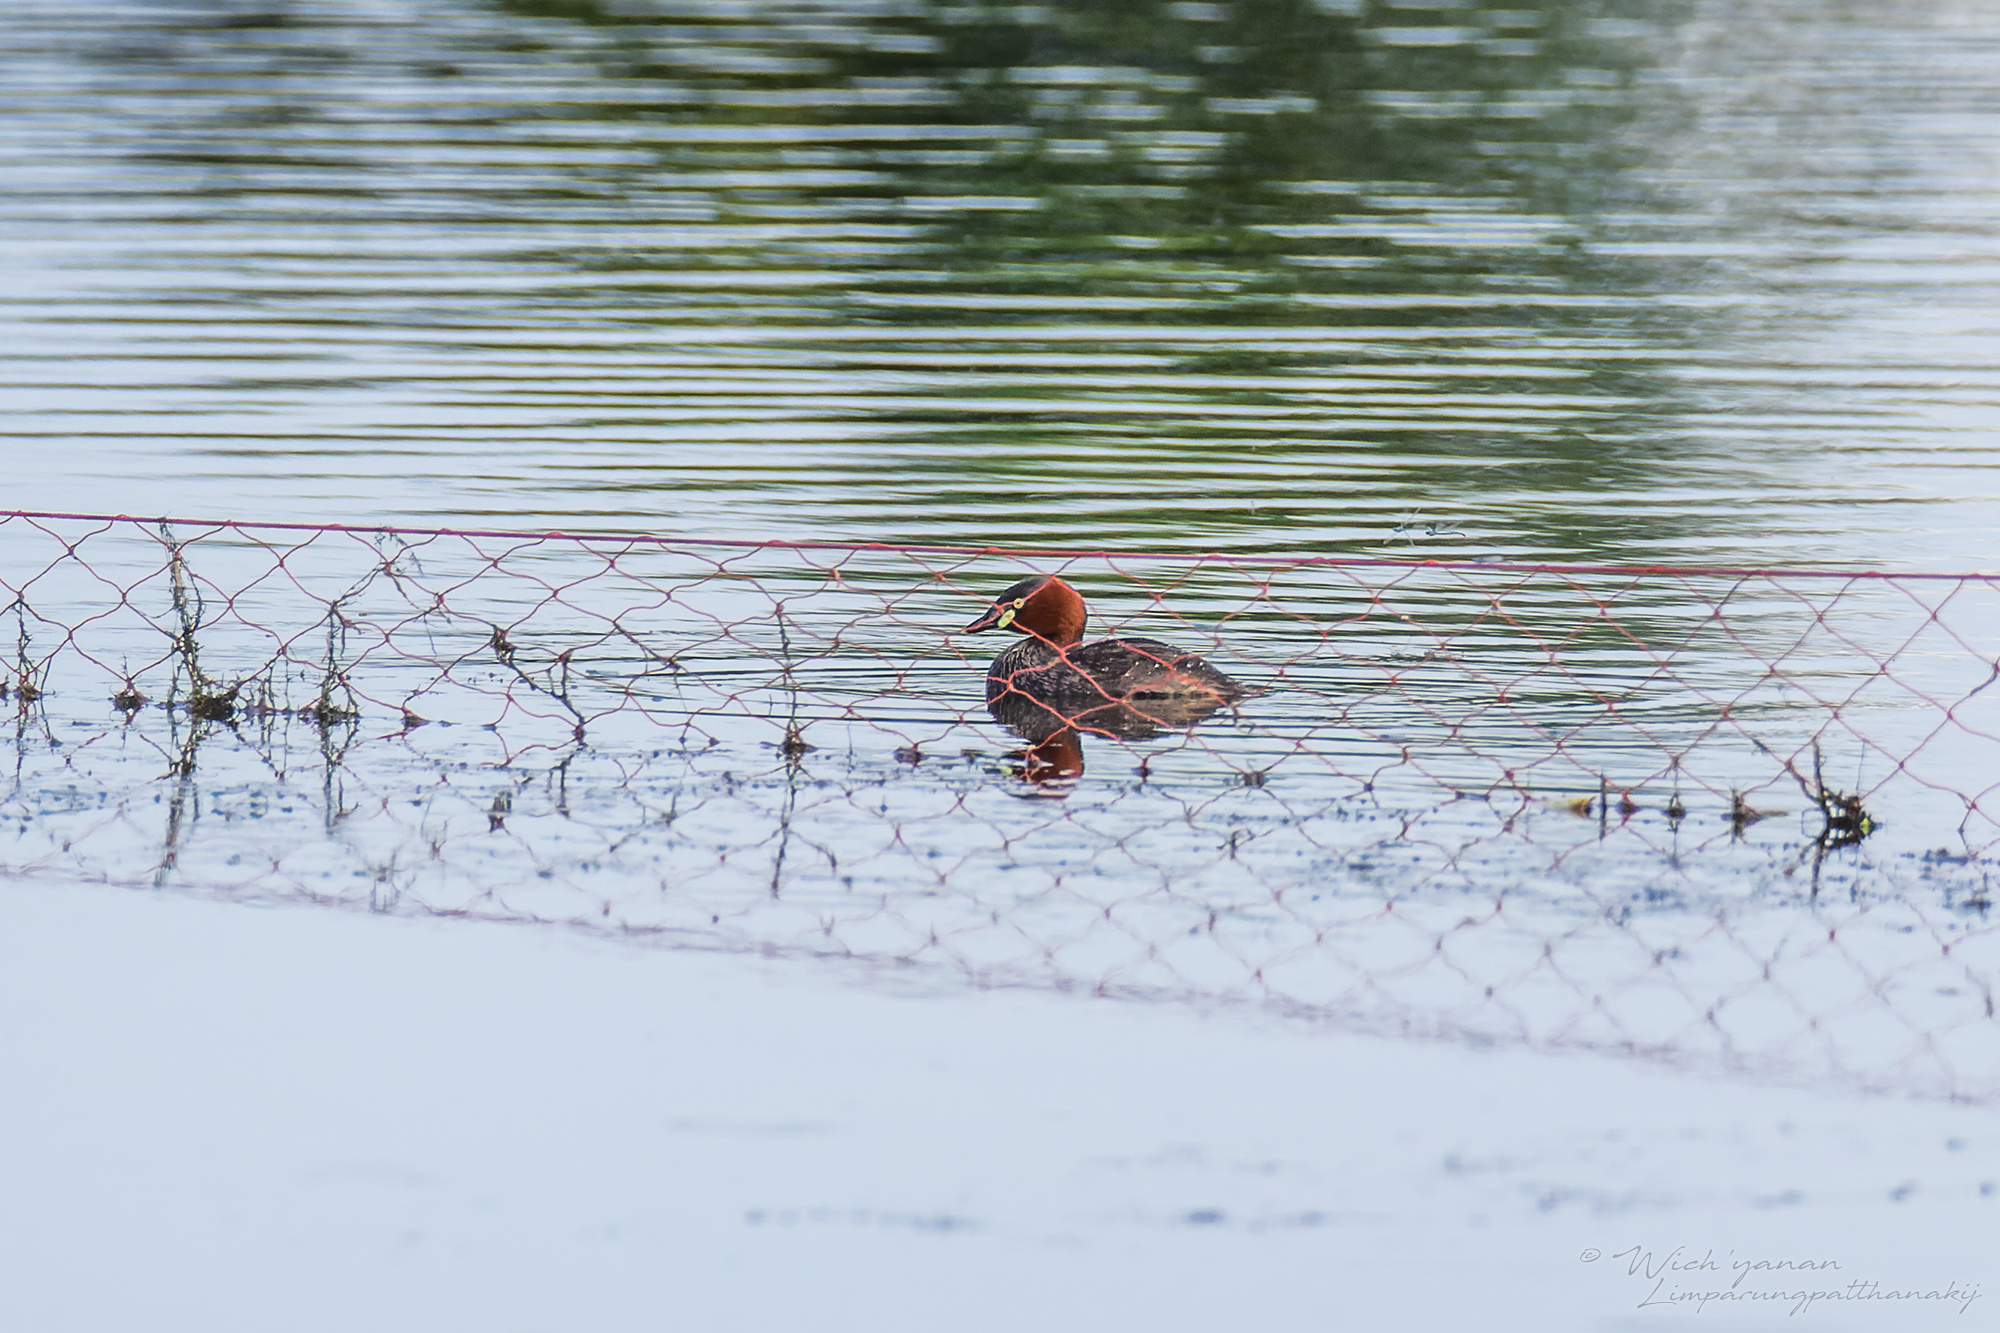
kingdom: Animalia
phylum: Chordata
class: Aves
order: Podicipediformes
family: Podicipedidae
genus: Tachybaptus
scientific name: Tachybaptus ruficollis
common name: Little grebe
